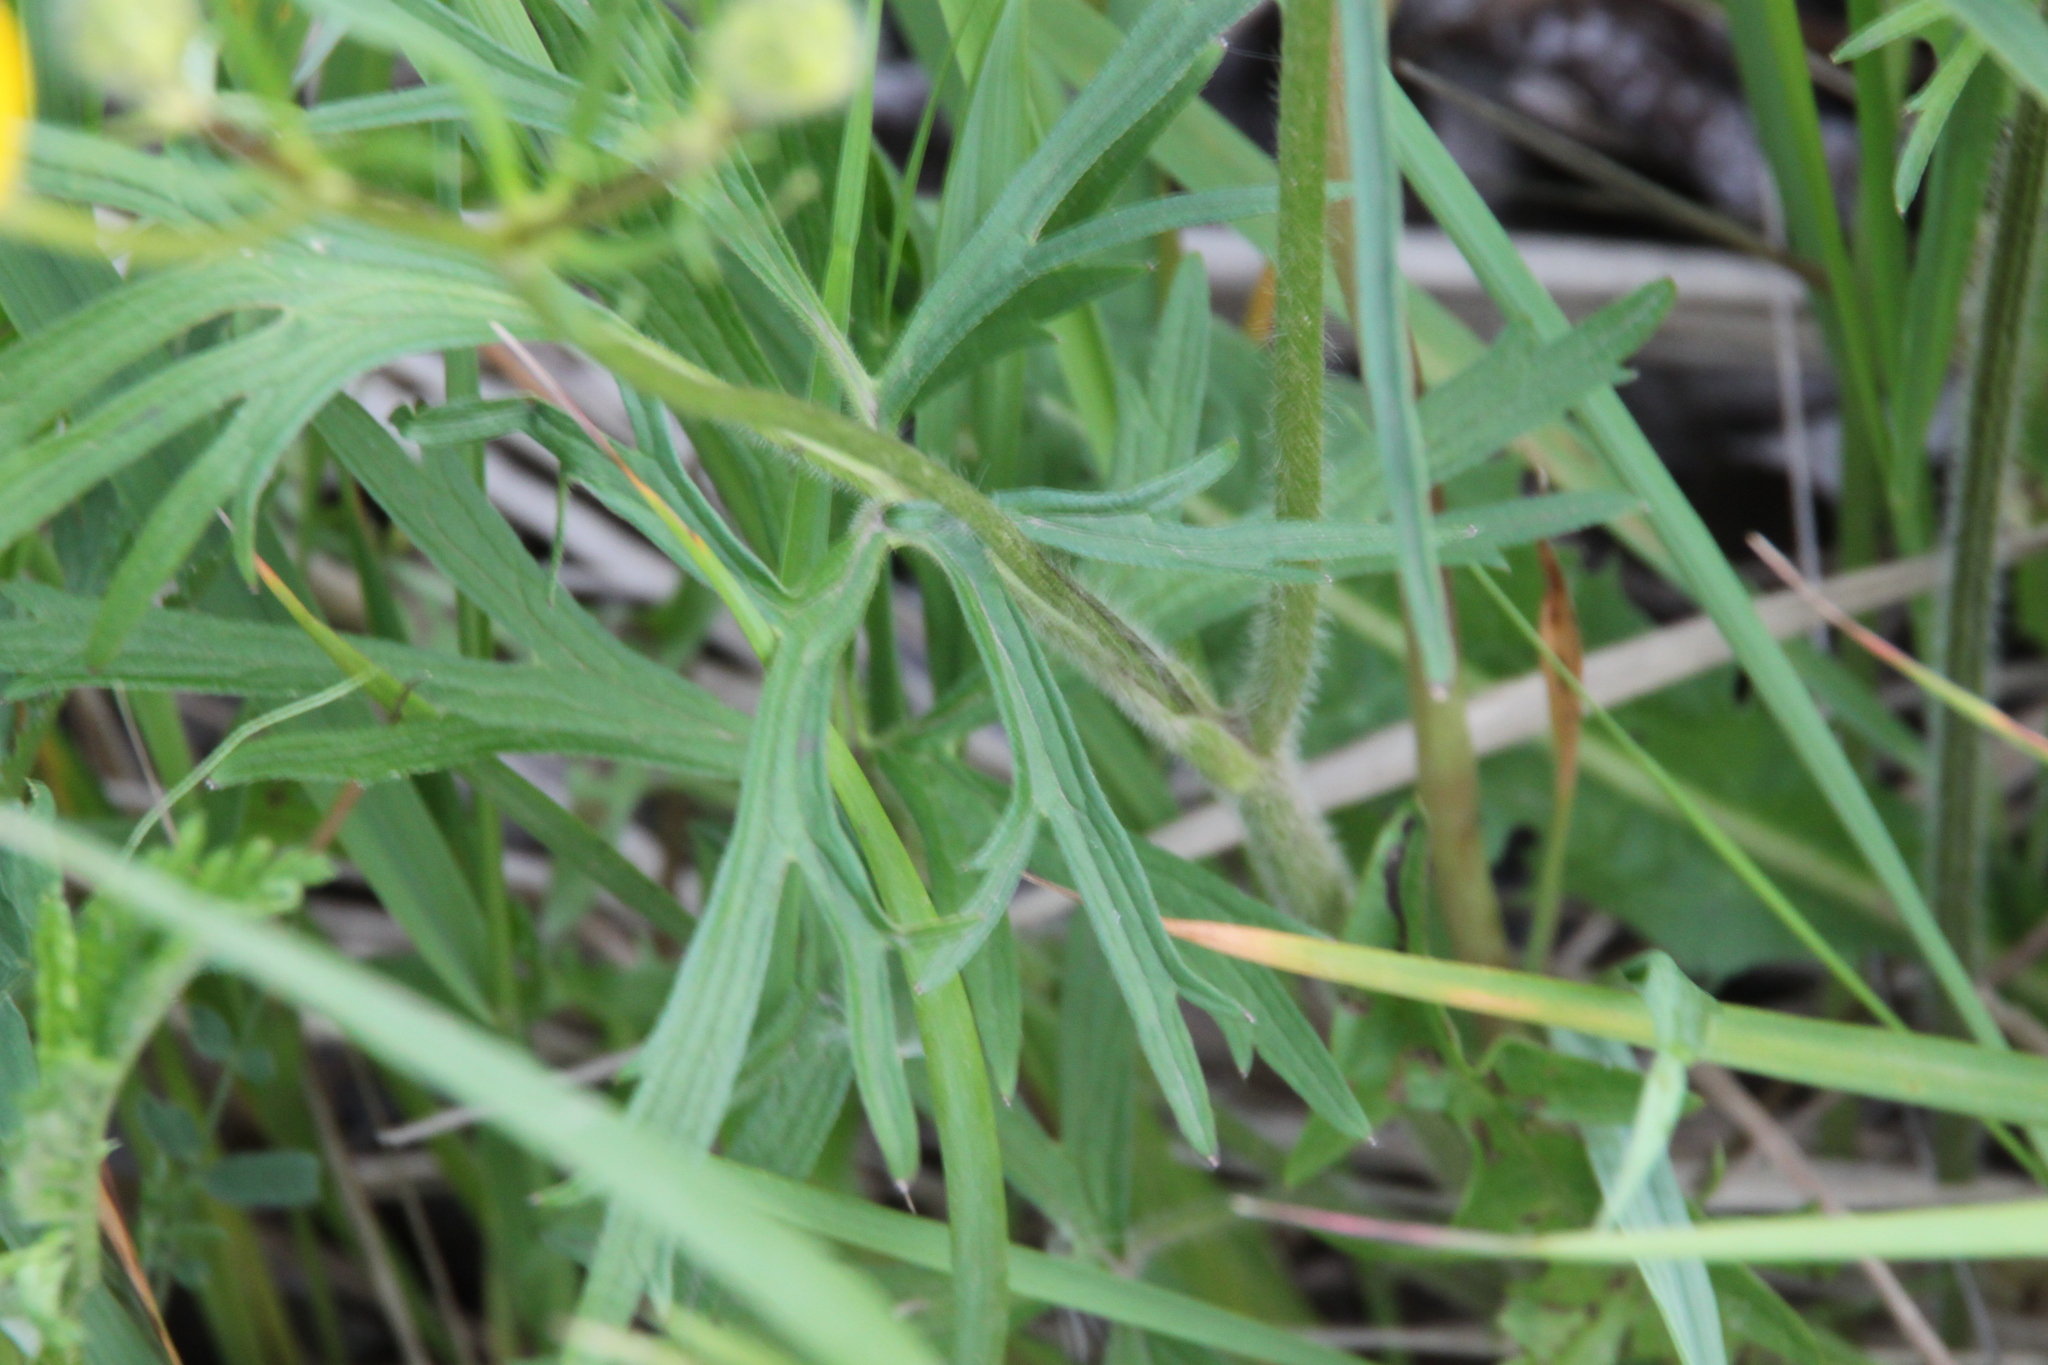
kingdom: Plantae
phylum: Tracheophyta
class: Magnoliopsida
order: Ranunculales
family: Ranunculaceae
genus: Ranunculus
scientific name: Ranunculus polyanthemos
